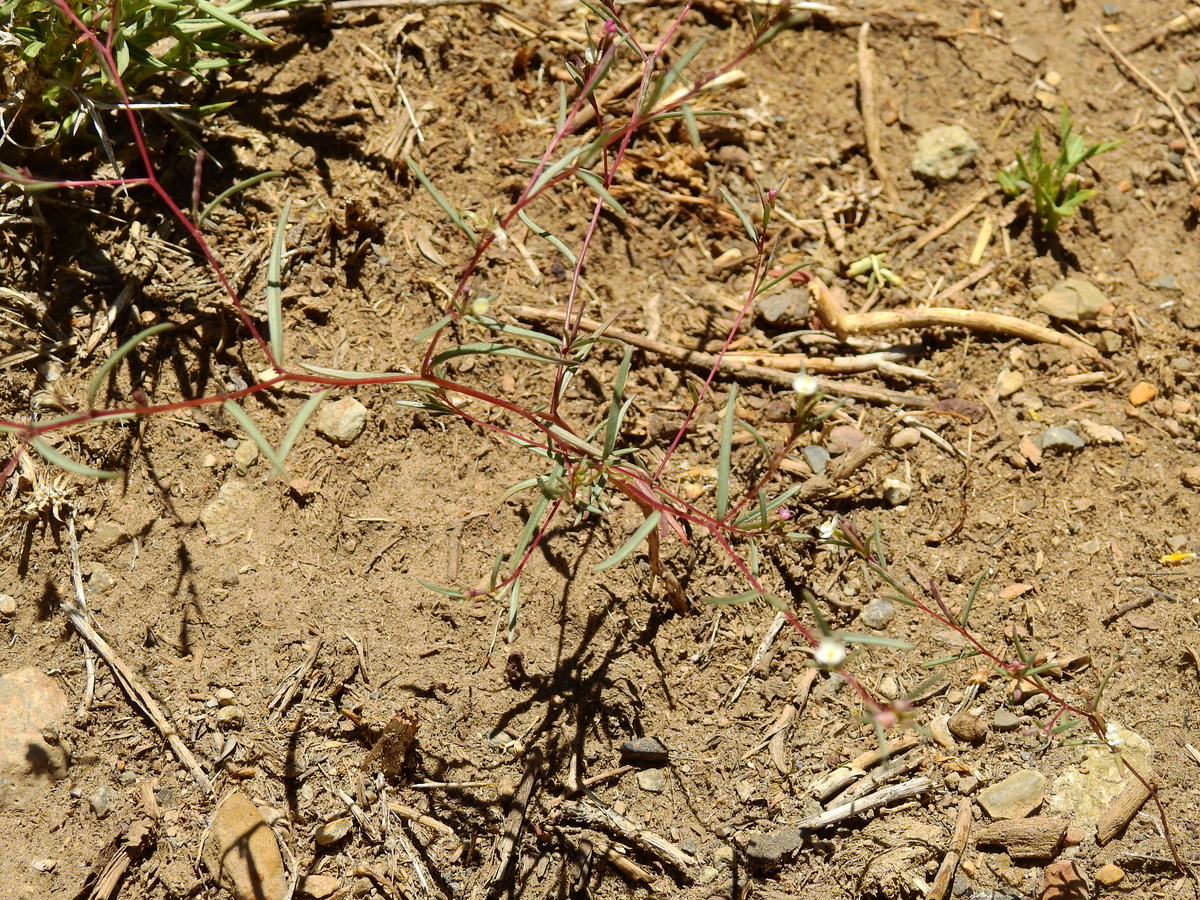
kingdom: Plantae
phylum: Tracheophyta
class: Magnoliopsida
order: Myrtales
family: Onagraceae
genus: Gayophytum
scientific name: Gayophytum humile
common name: Dwarf groundsmoke
